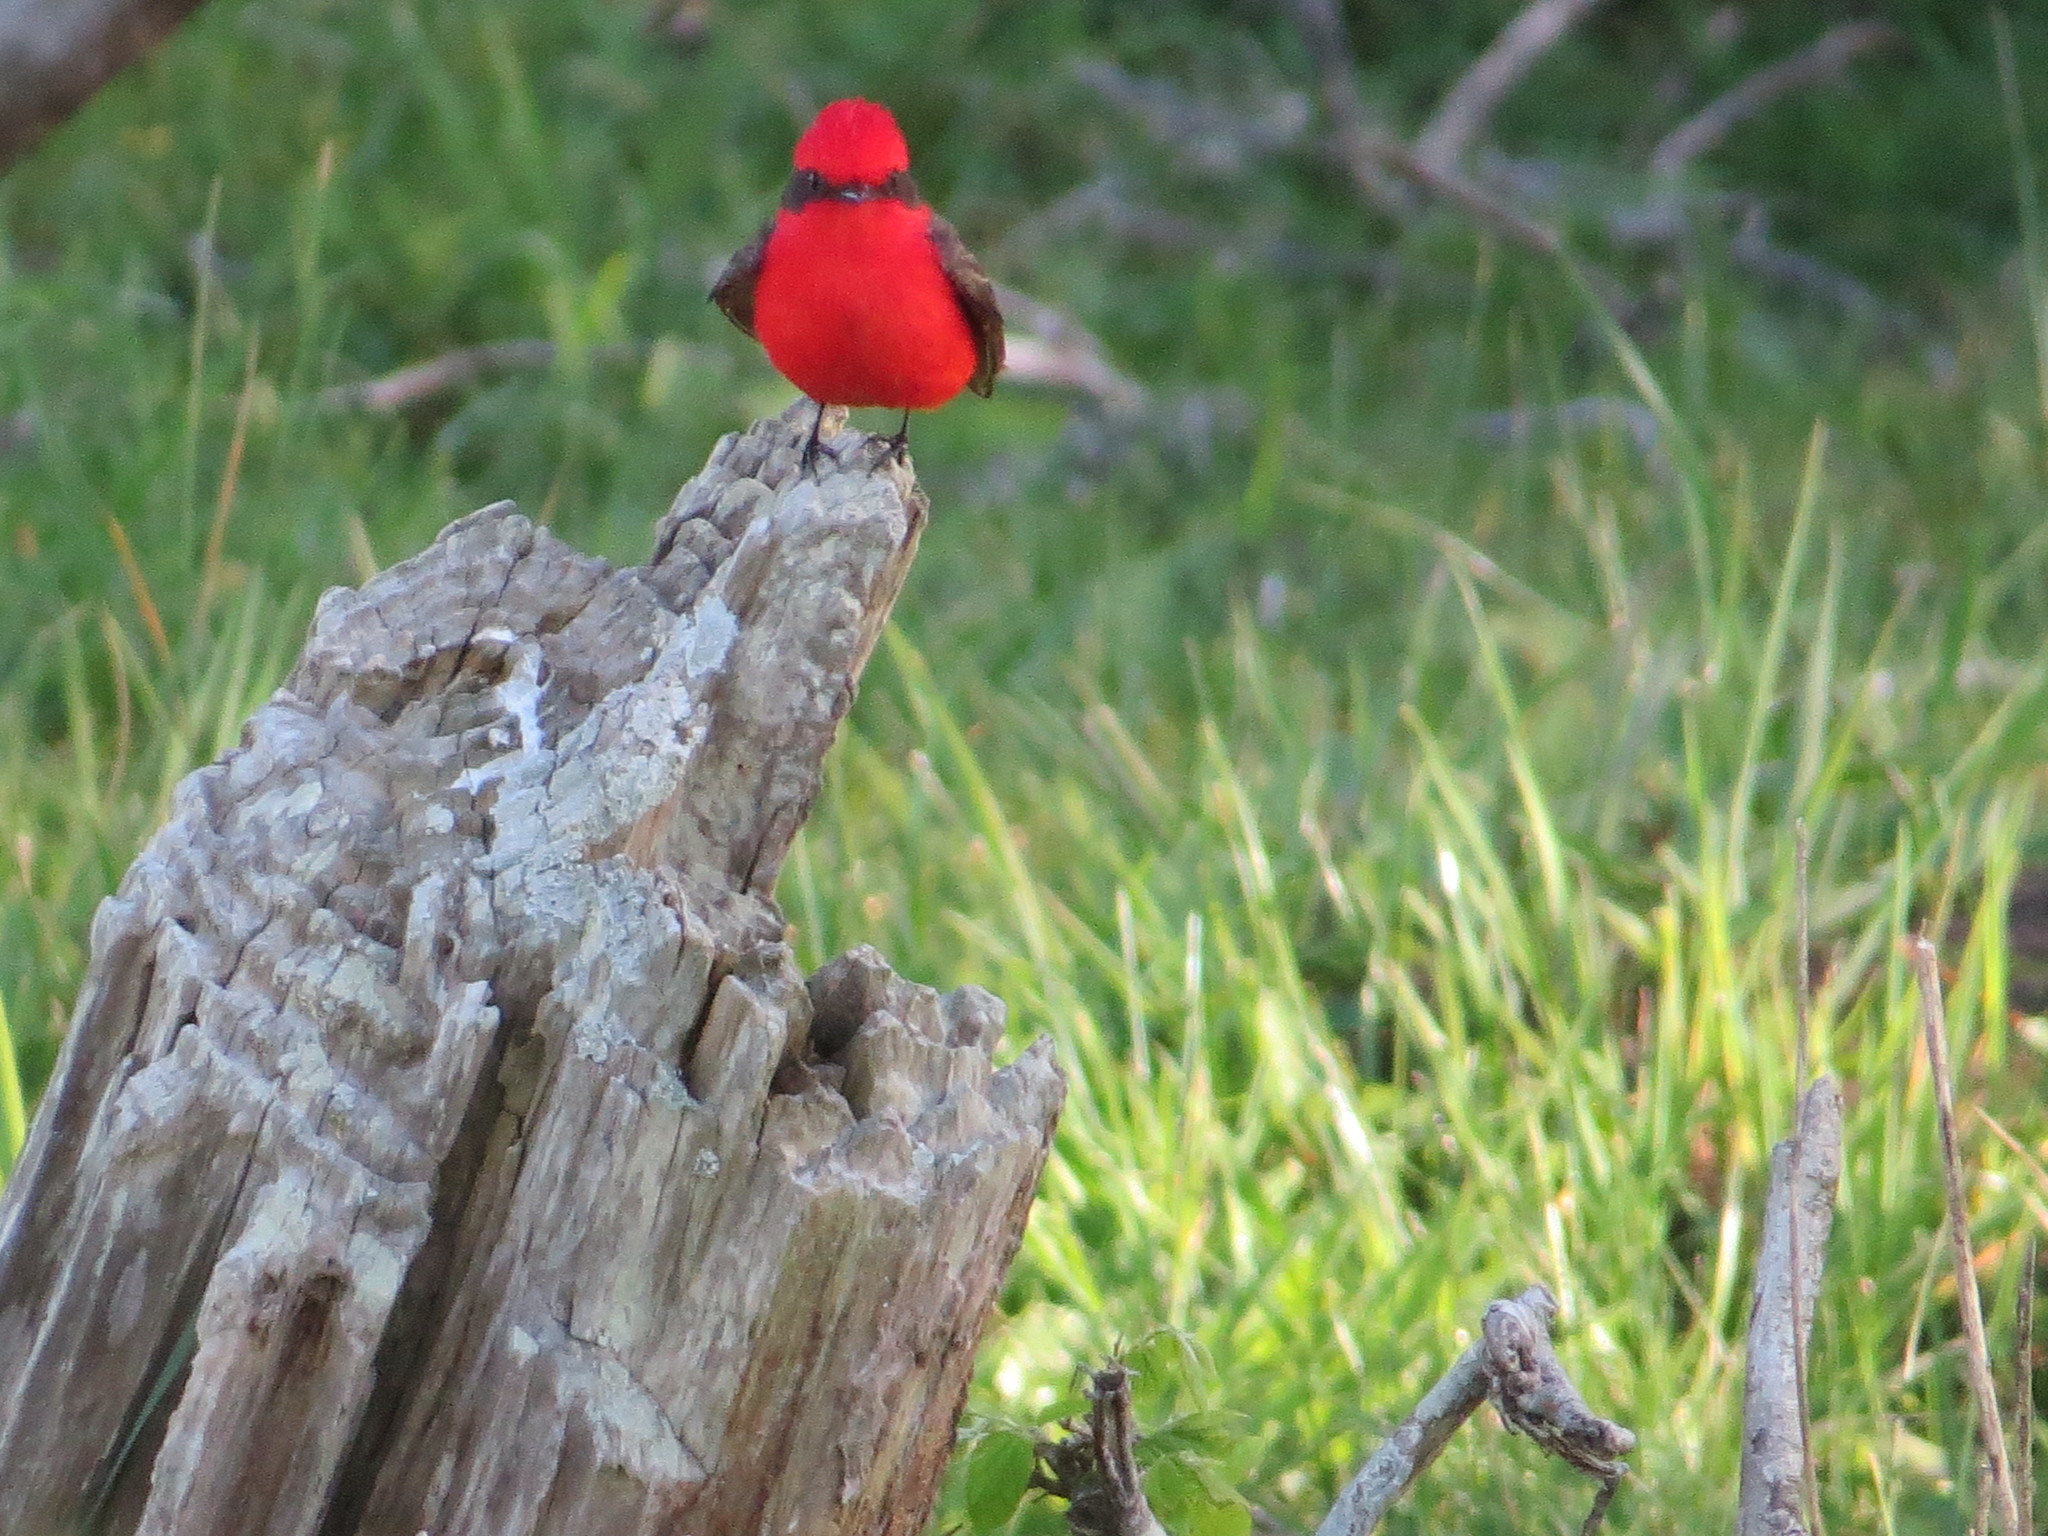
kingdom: Animalia
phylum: Chordata
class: Aves
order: Passeriformes
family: Tyrannidae
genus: Pyrocephalus
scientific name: Pyrocephalus rubinus
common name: Vermilion flycatcher
